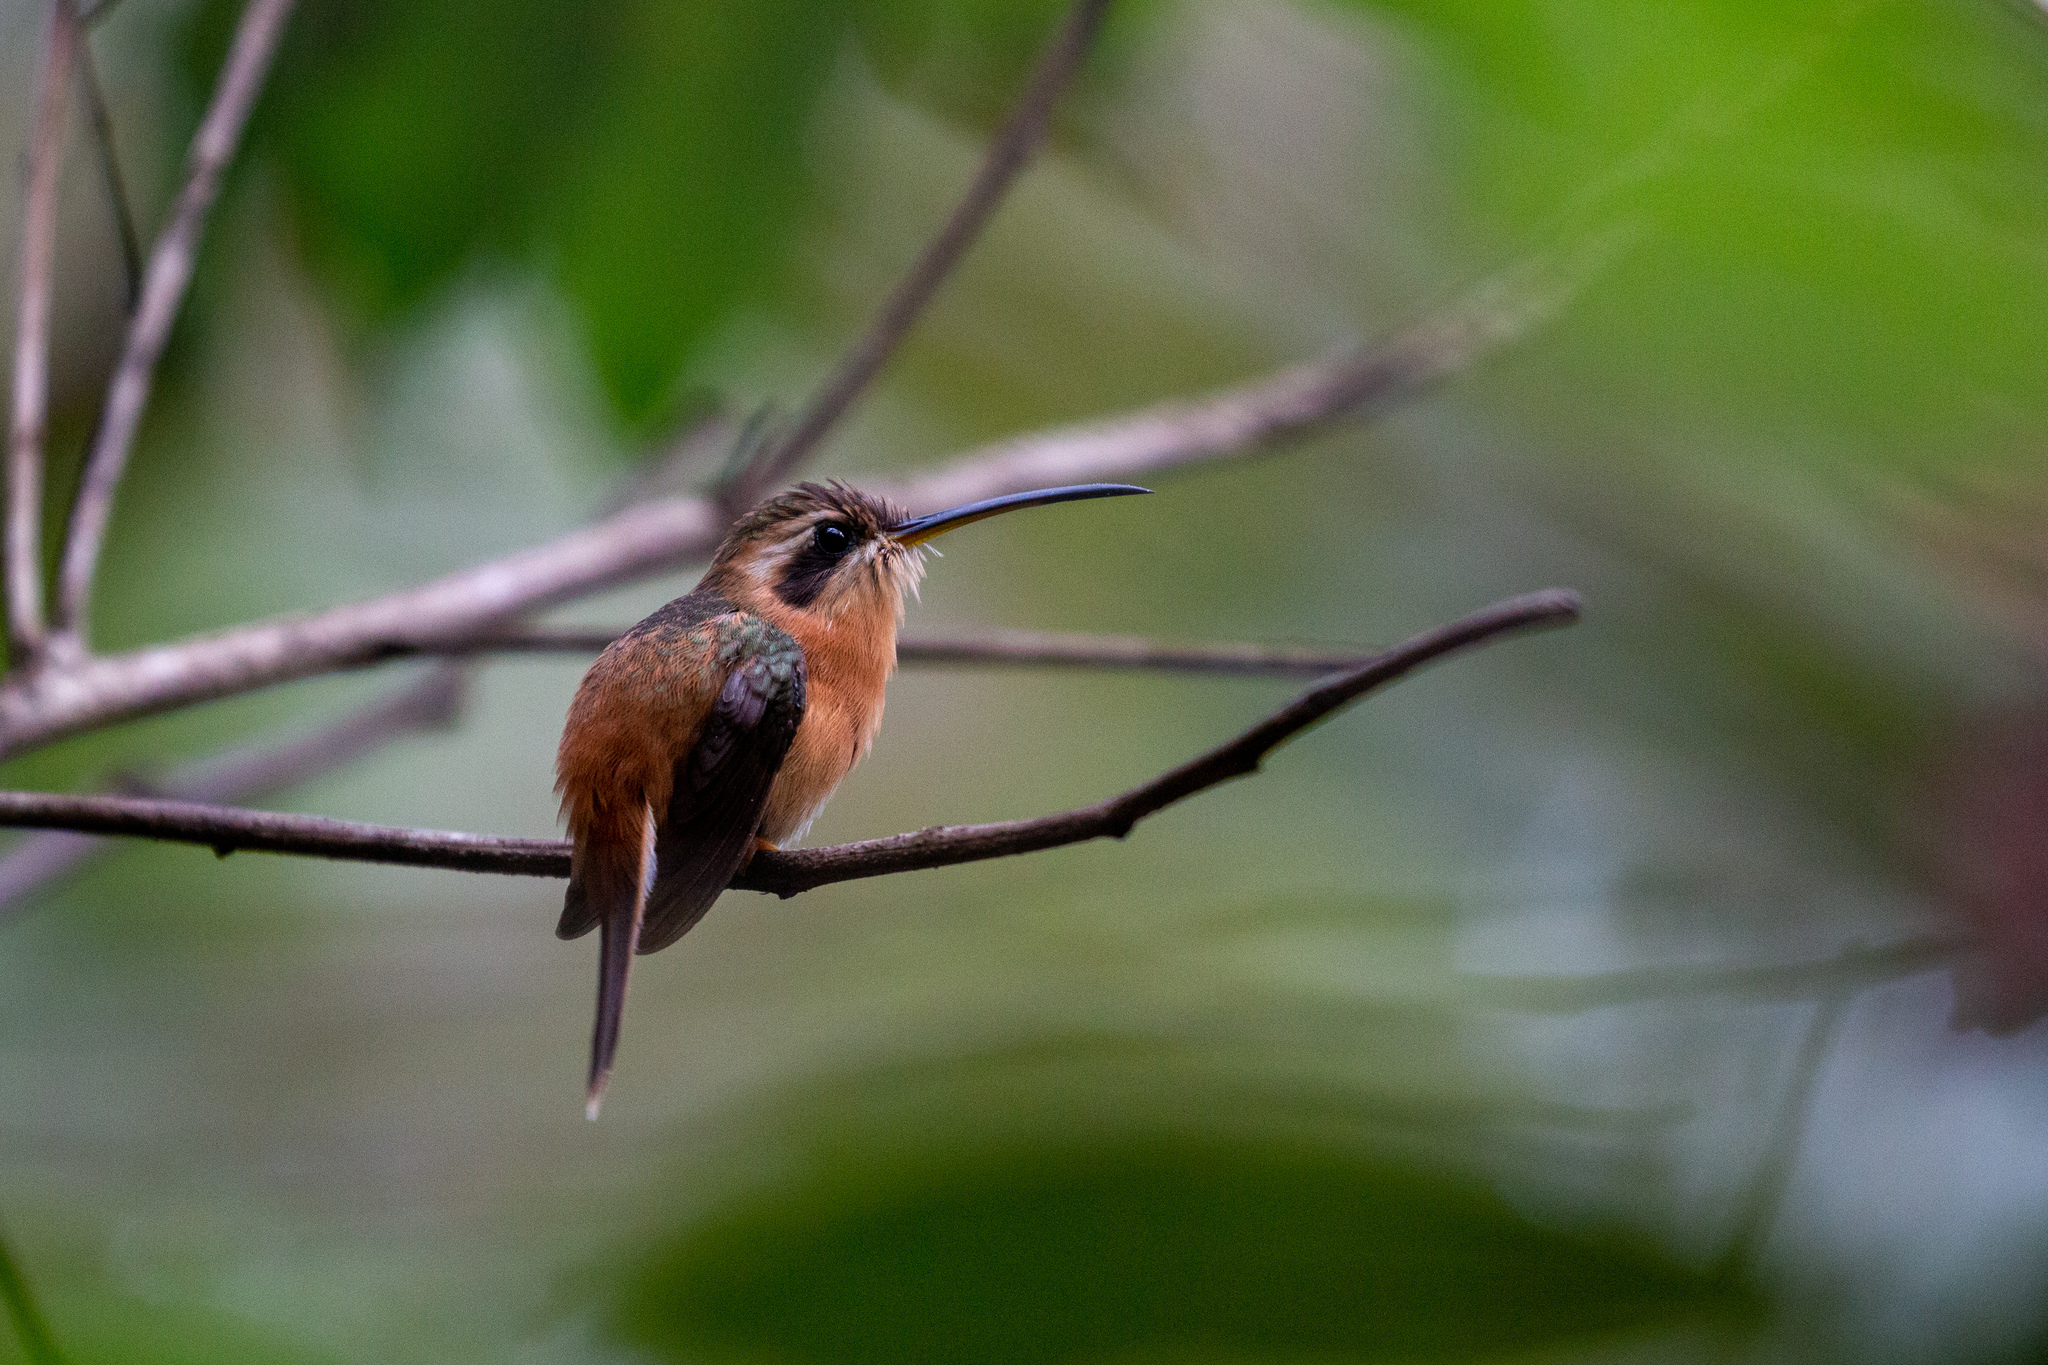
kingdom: Animalia
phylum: Chordata
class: Aves
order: Apodiformes
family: Trochilidae
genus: Phaethornis
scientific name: Phaethornis ruber
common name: Reddish hermit
